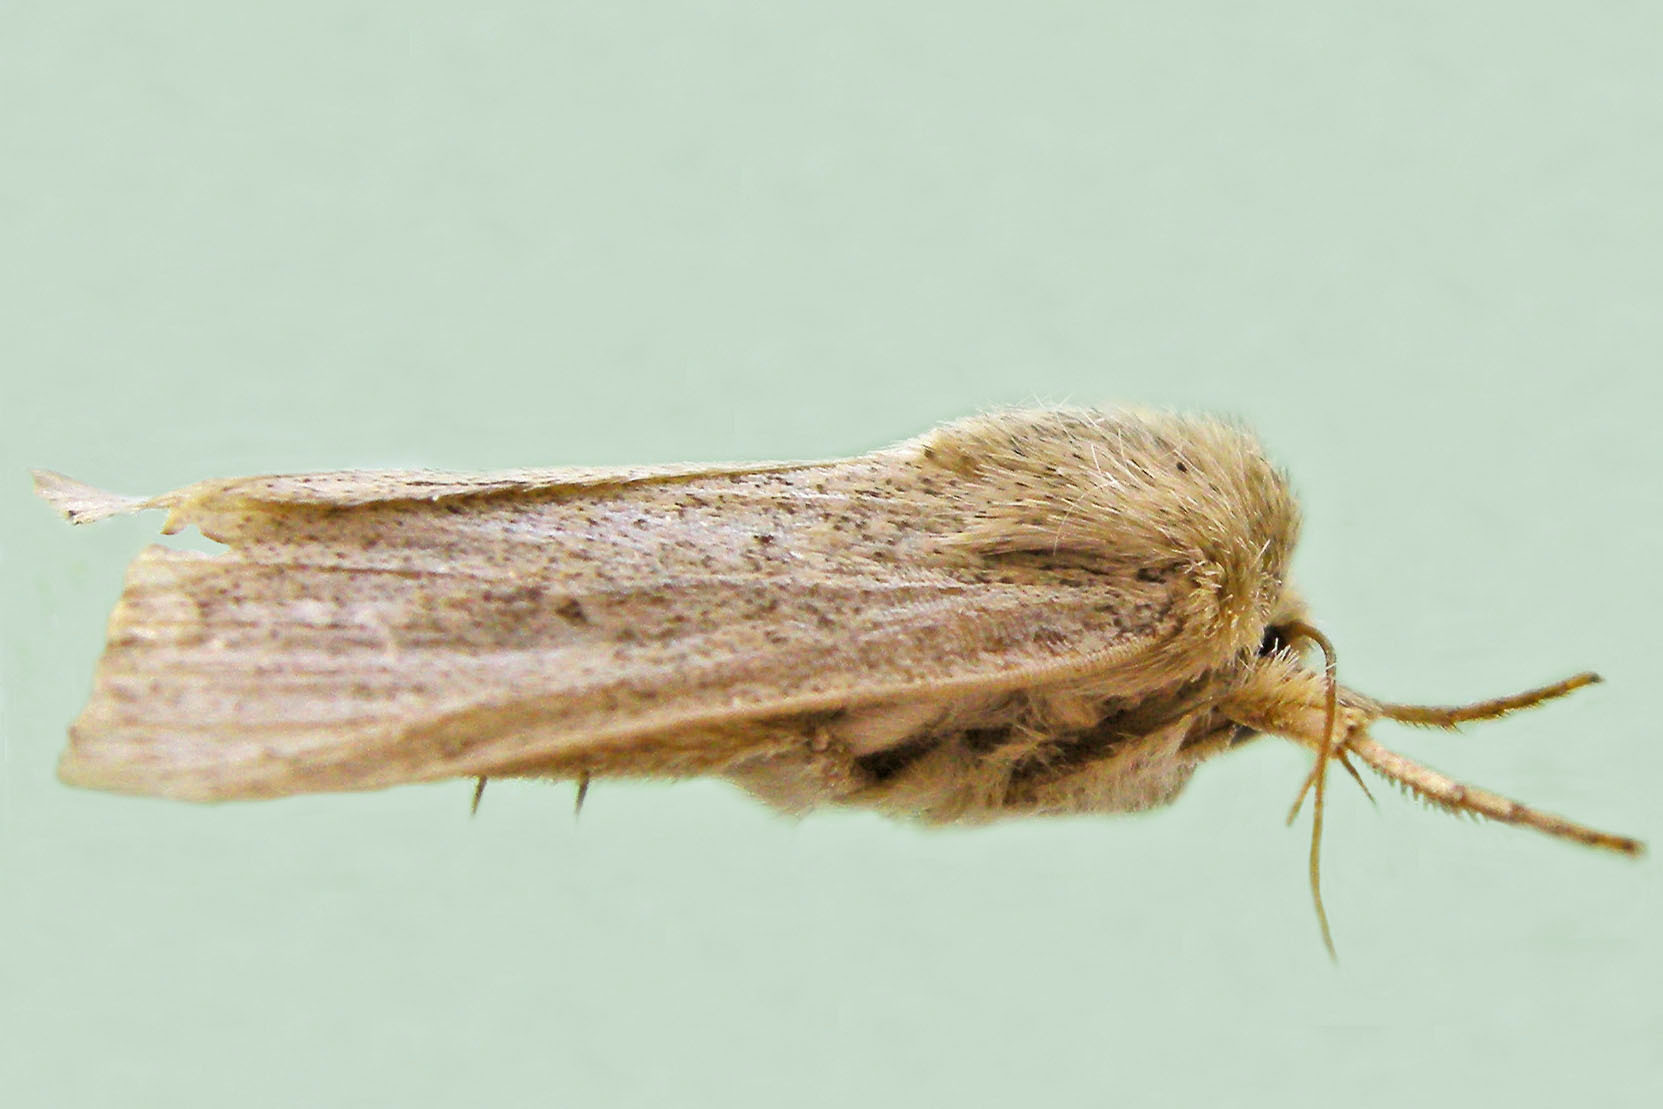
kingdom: Animalia
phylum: Arthropoda
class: Insecta
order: Lepidoptera
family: Noctuidae
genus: Leucania
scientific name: Leucania inermis
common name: Unarmed wainscot
